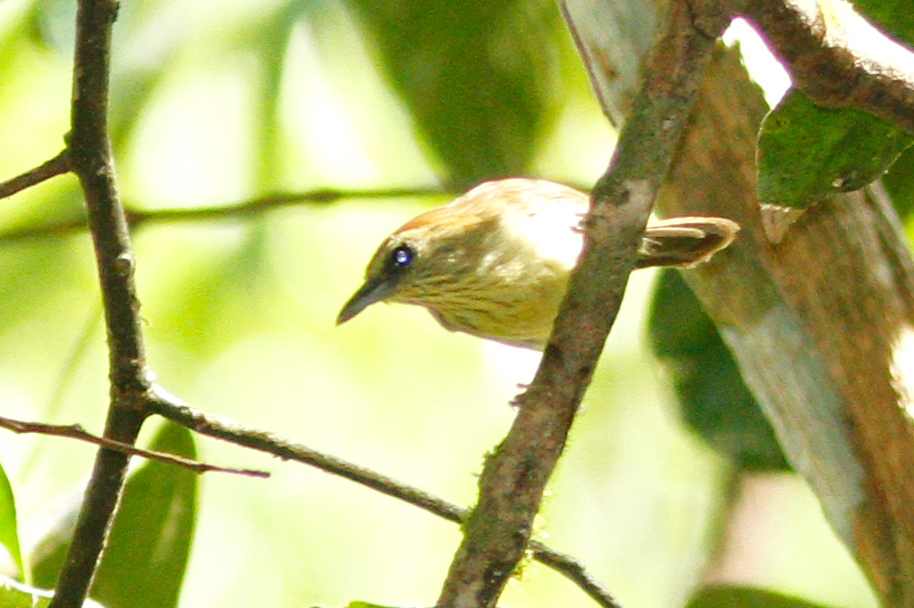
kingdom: Animalia
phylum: Chordata
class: Aves
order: Passeriformes
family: Timaliidae
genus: Macronus
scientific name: Macronus gularis
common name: Striped tit-babbler
